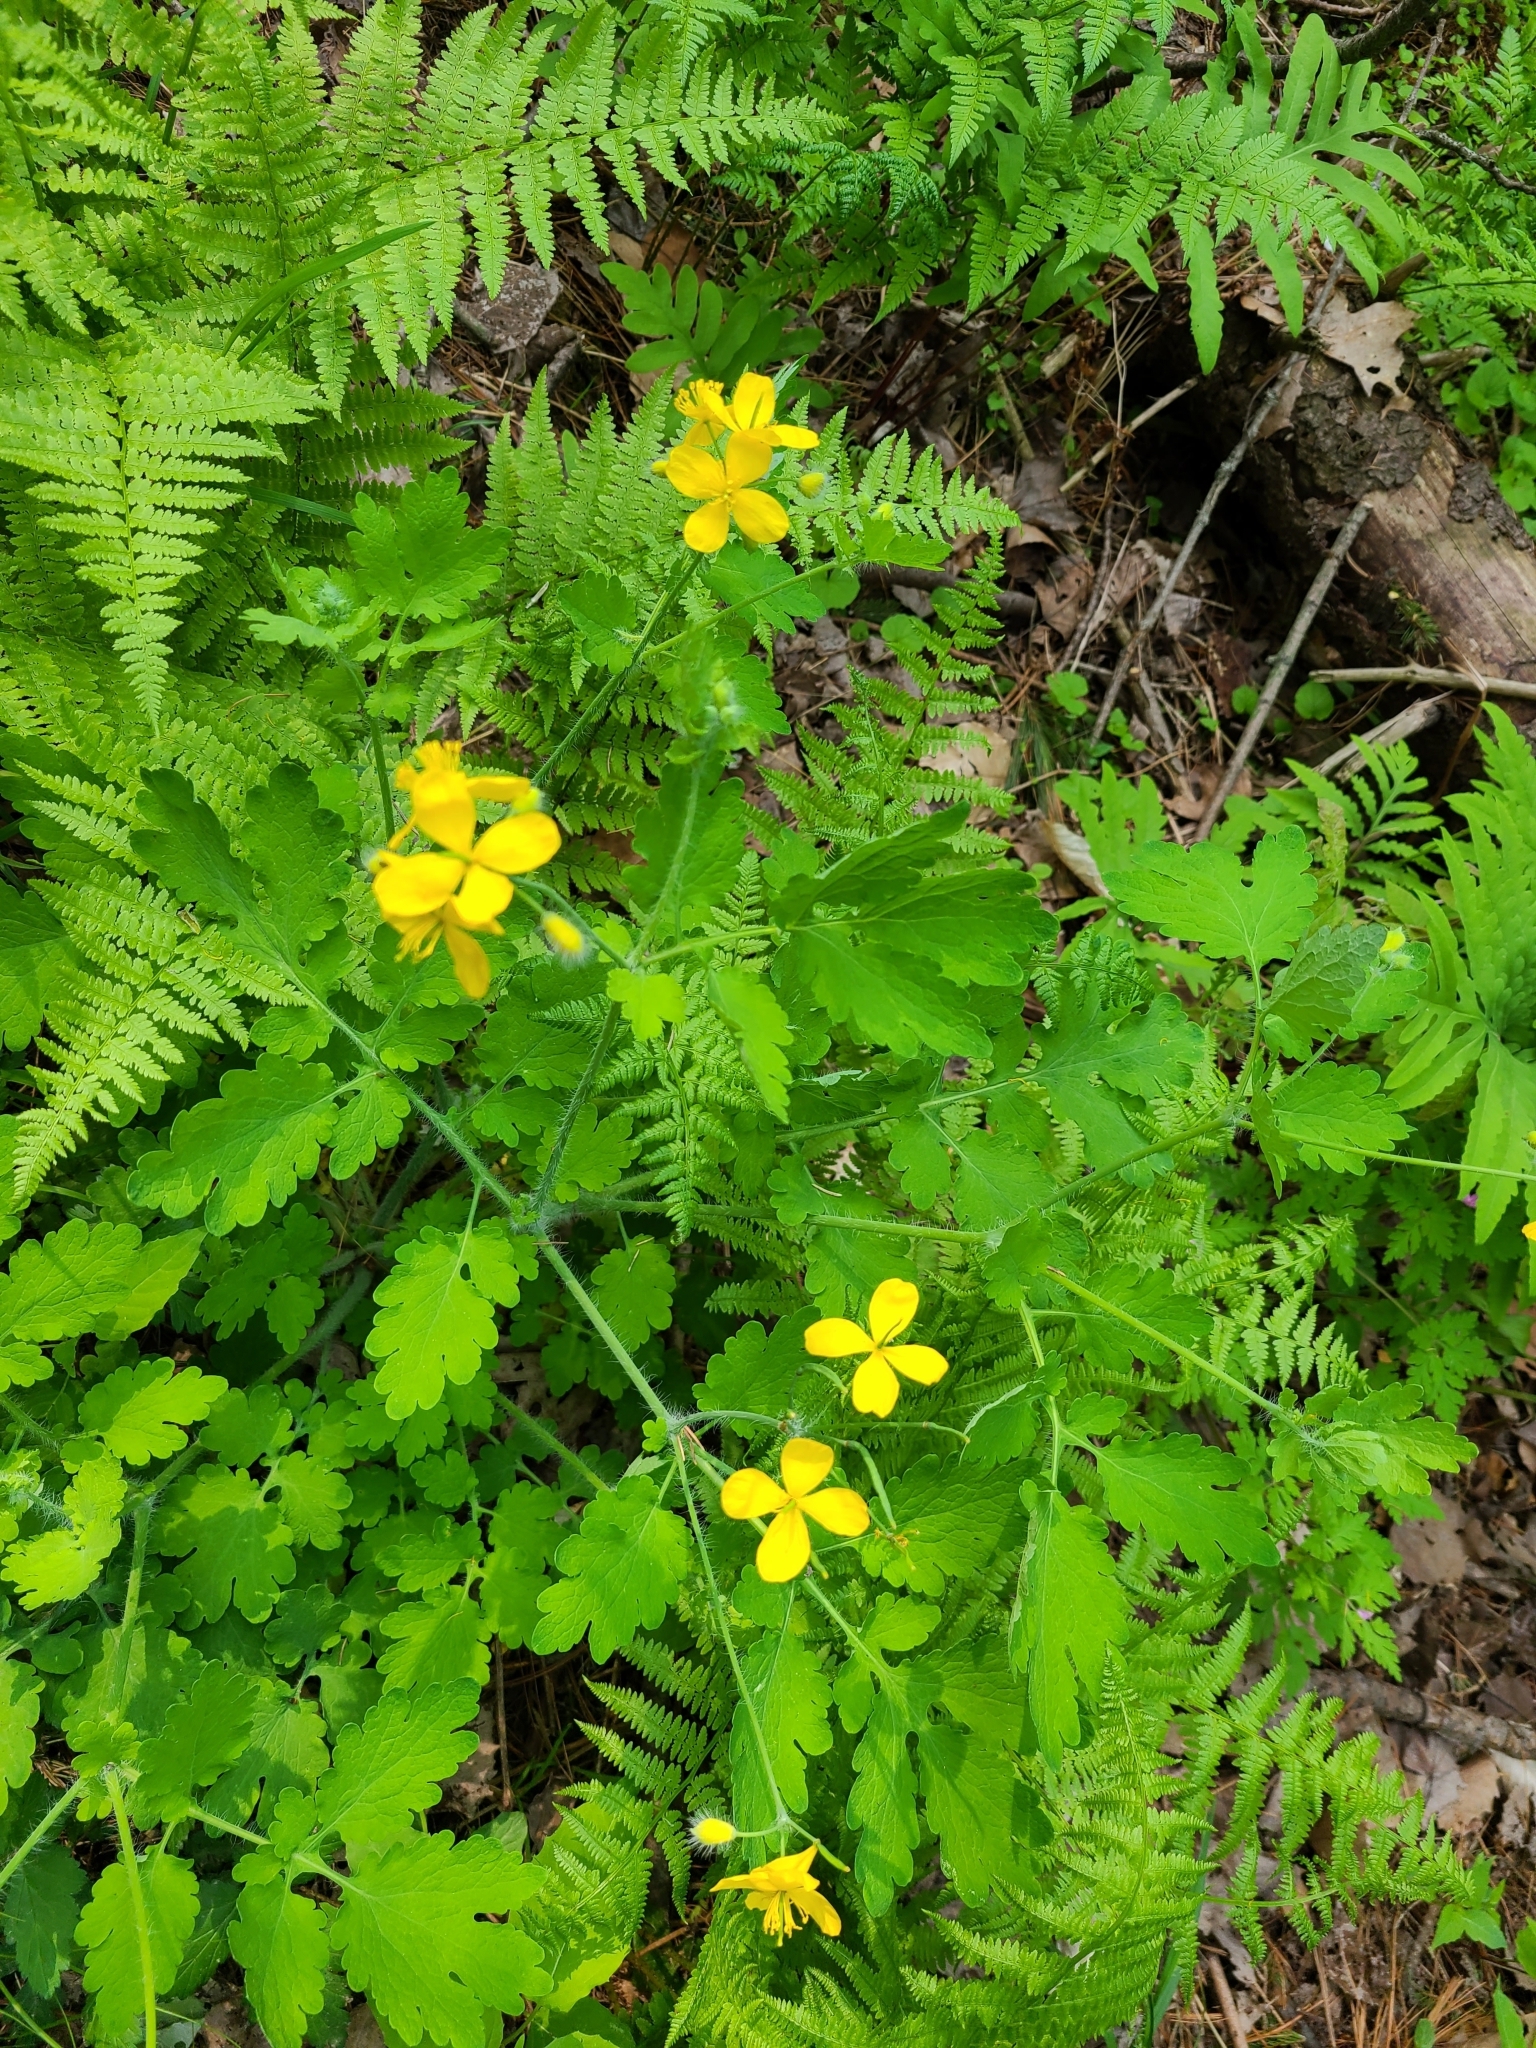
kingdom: Plantae
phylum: Tracheophyta
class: Magnoliopsida
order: Ranunculales
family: Papaveraceae
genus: Chelidonium
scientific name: Chelidonium majus
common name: Greater celandine
